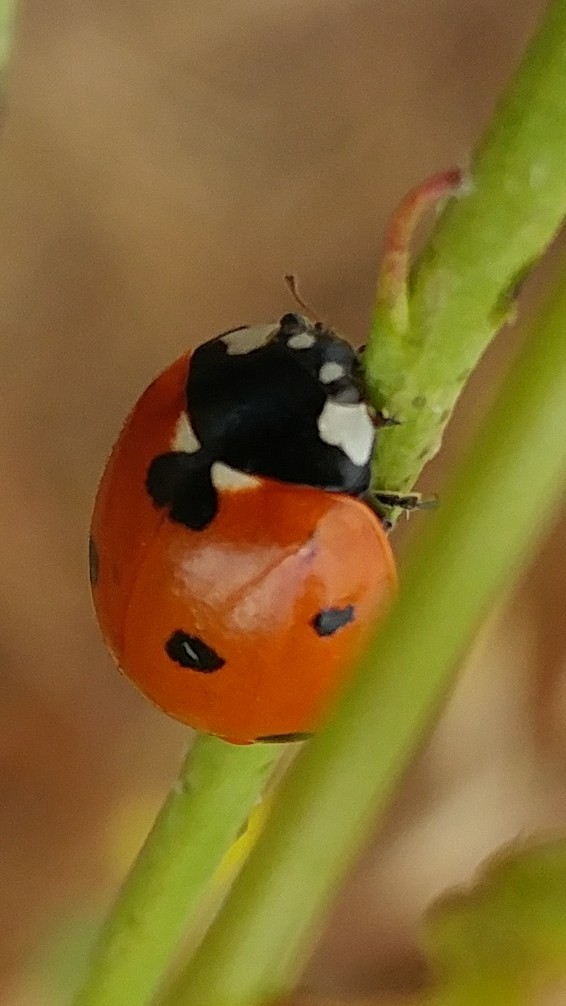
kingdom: Animalia
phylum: Arthropoda
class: Insecta
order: Coleoptera
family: Coccinellidae
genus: Coccinella
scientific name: Coccinella septempunctata
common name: Sevenspotted lady beetle
